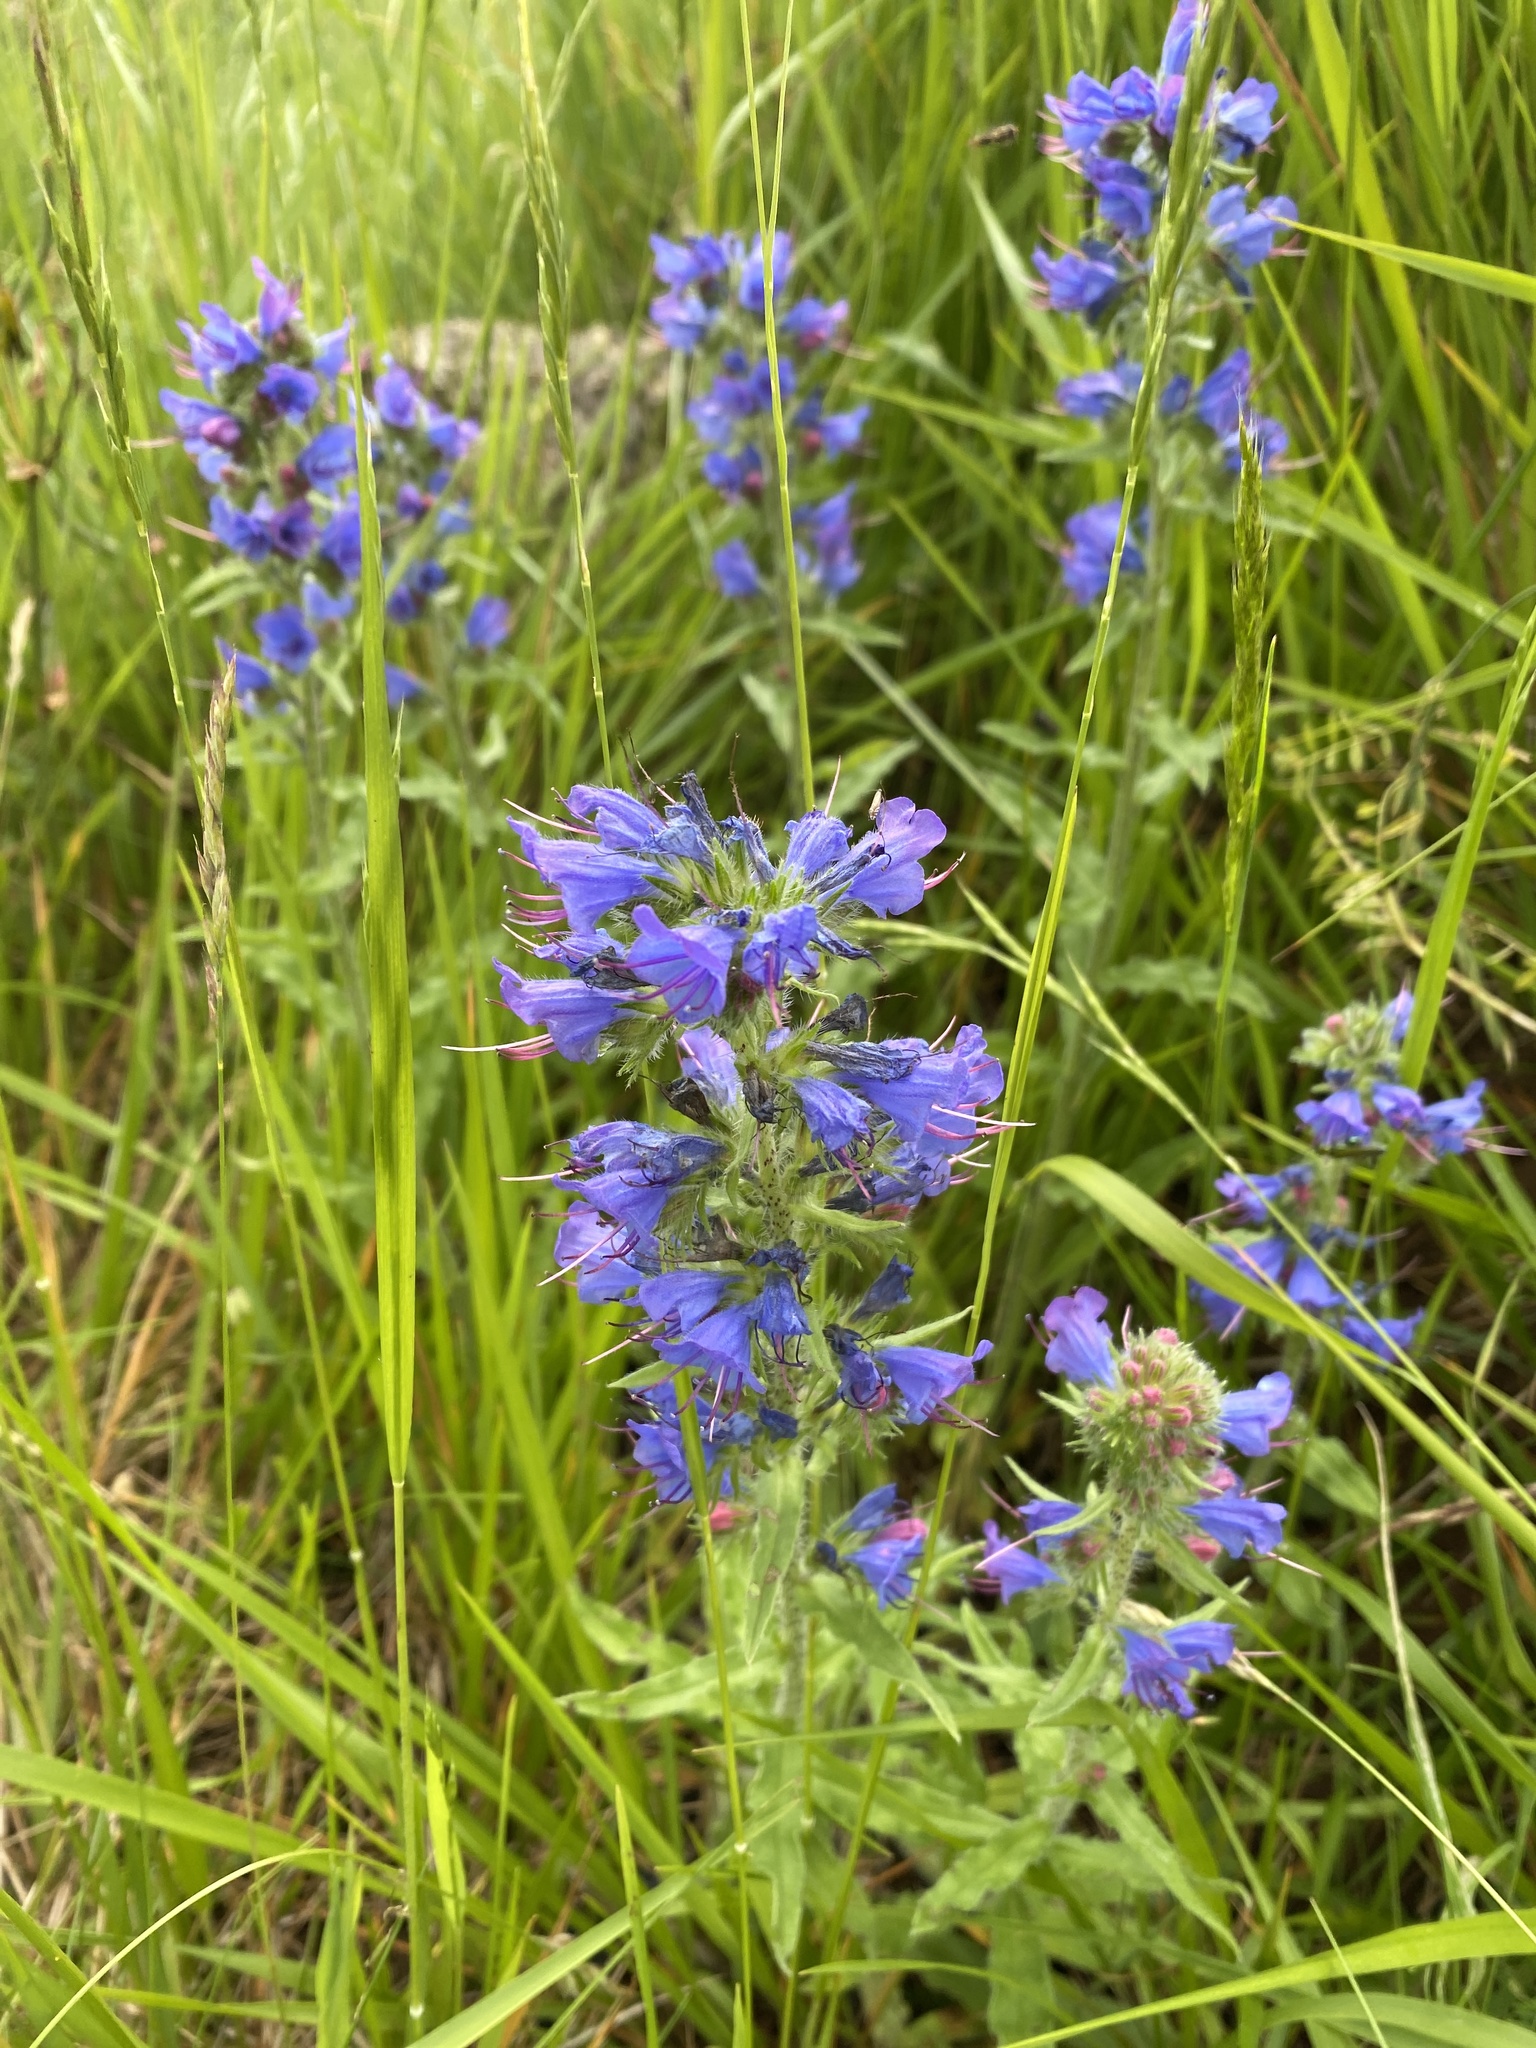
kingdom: Plantae
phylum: Tracheophyta
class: Magnoliopsida
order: Boraginales
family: Boraginaceae
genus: Echium
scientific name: Echium vulgare
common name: Common viper's bugloss
